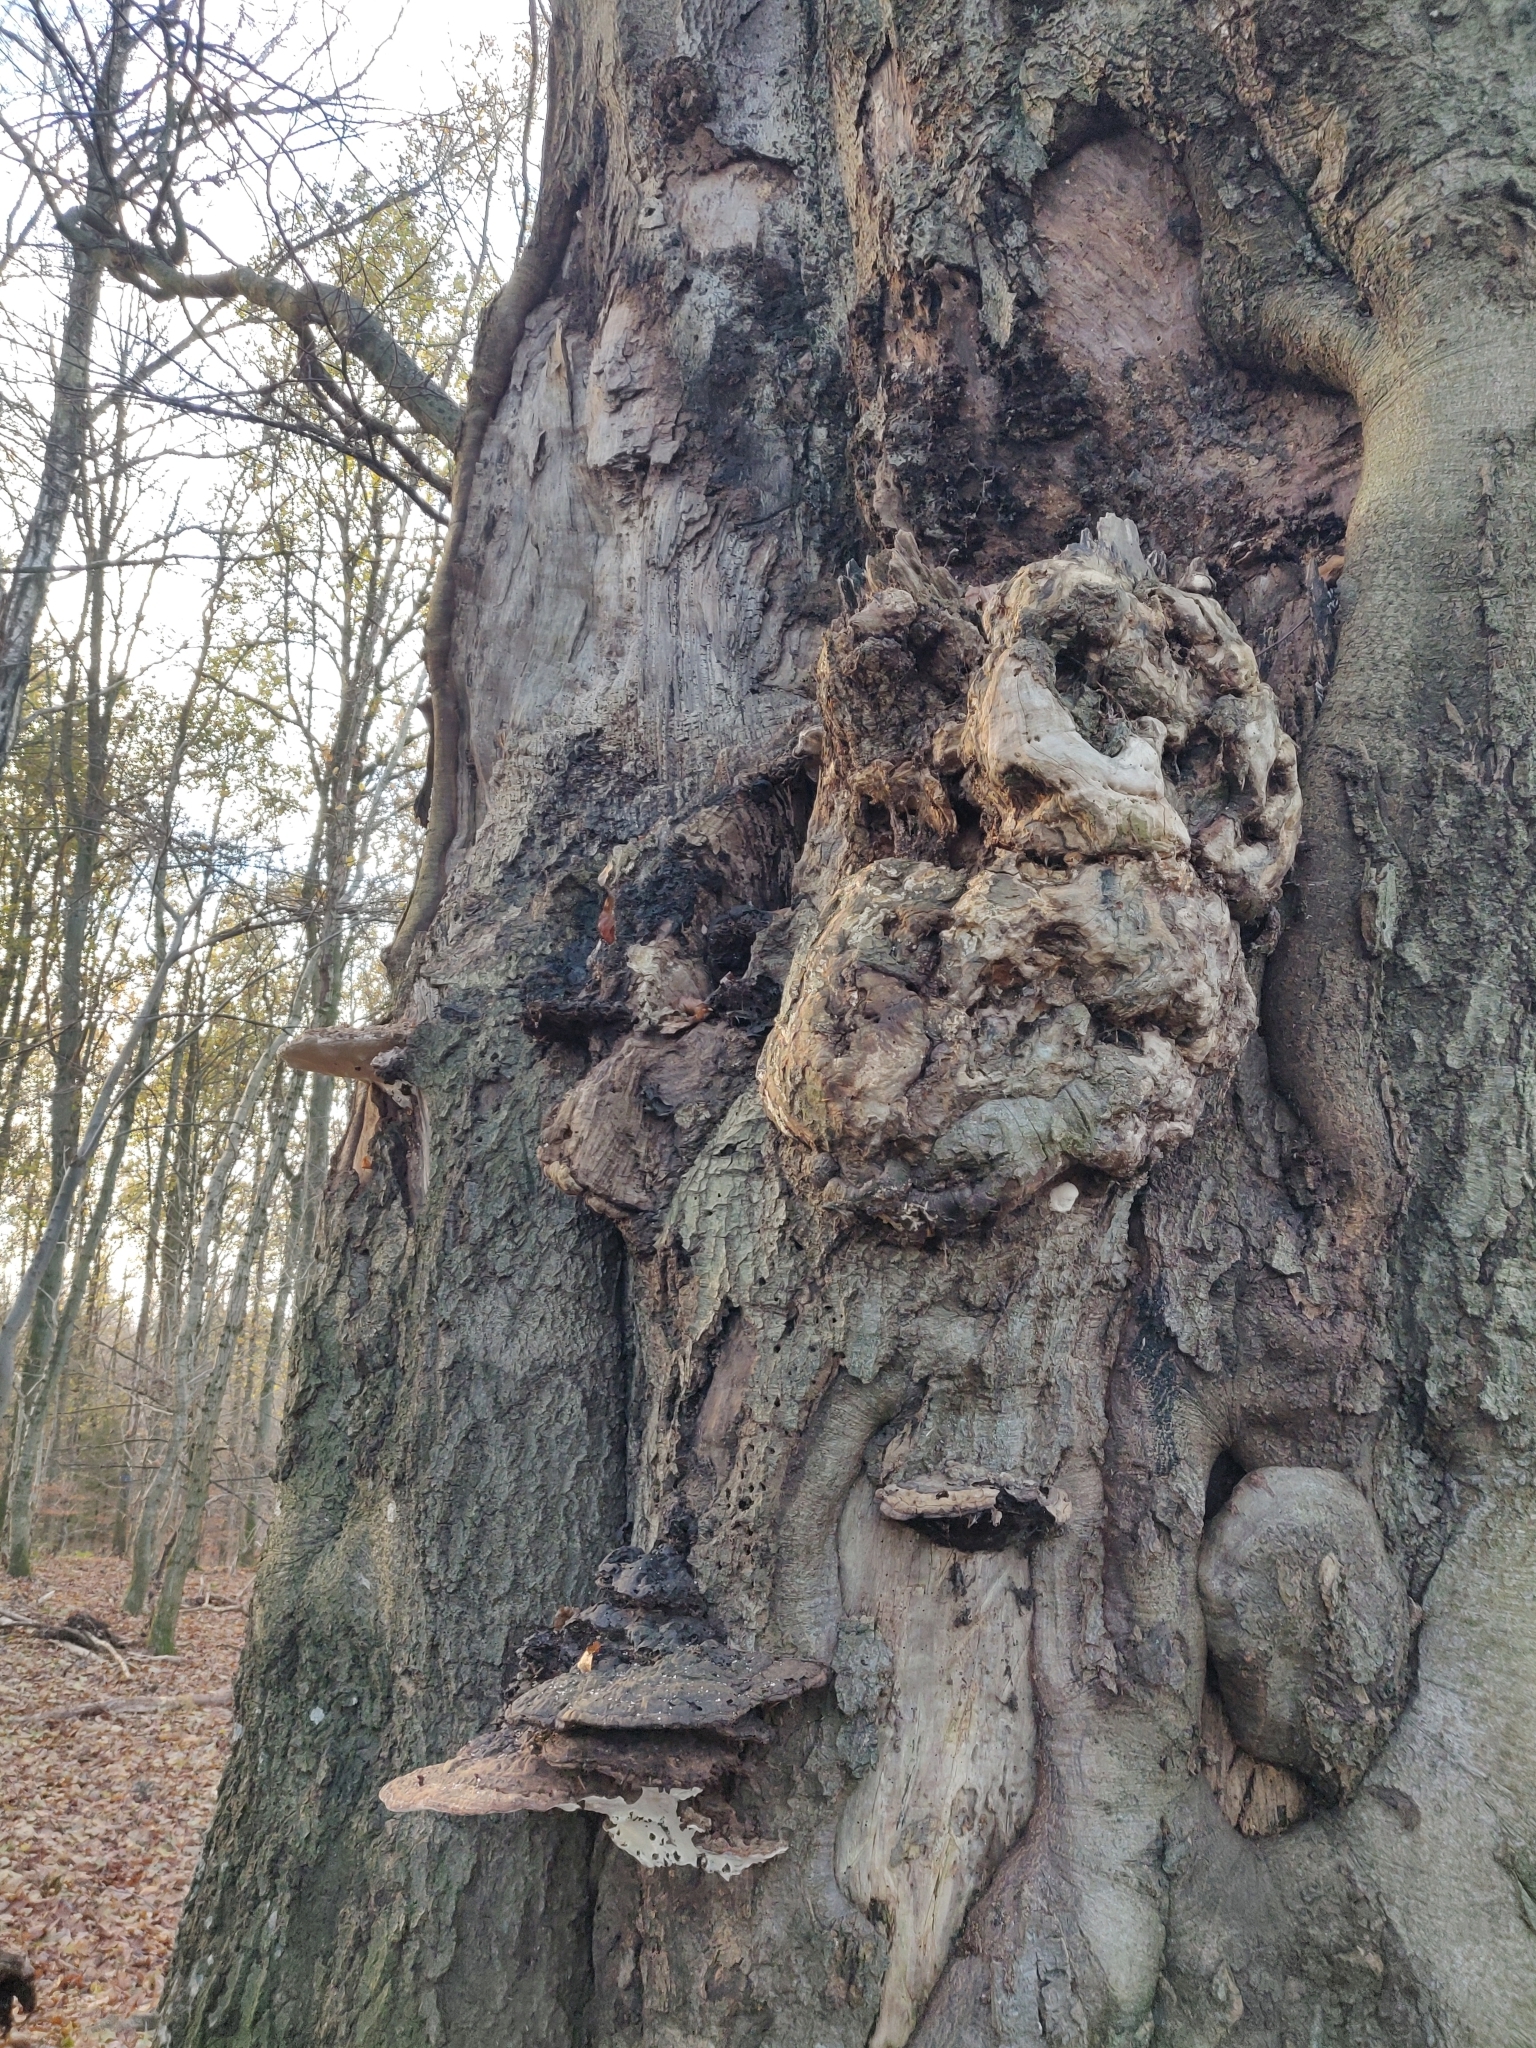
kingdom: Fungi
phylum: Basidiomycota
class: Agaricomycetes
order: Polyporales
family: Polyporaceae
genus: Ganoderma
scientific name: Ganoderma applanatum
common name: Artist's bracket
